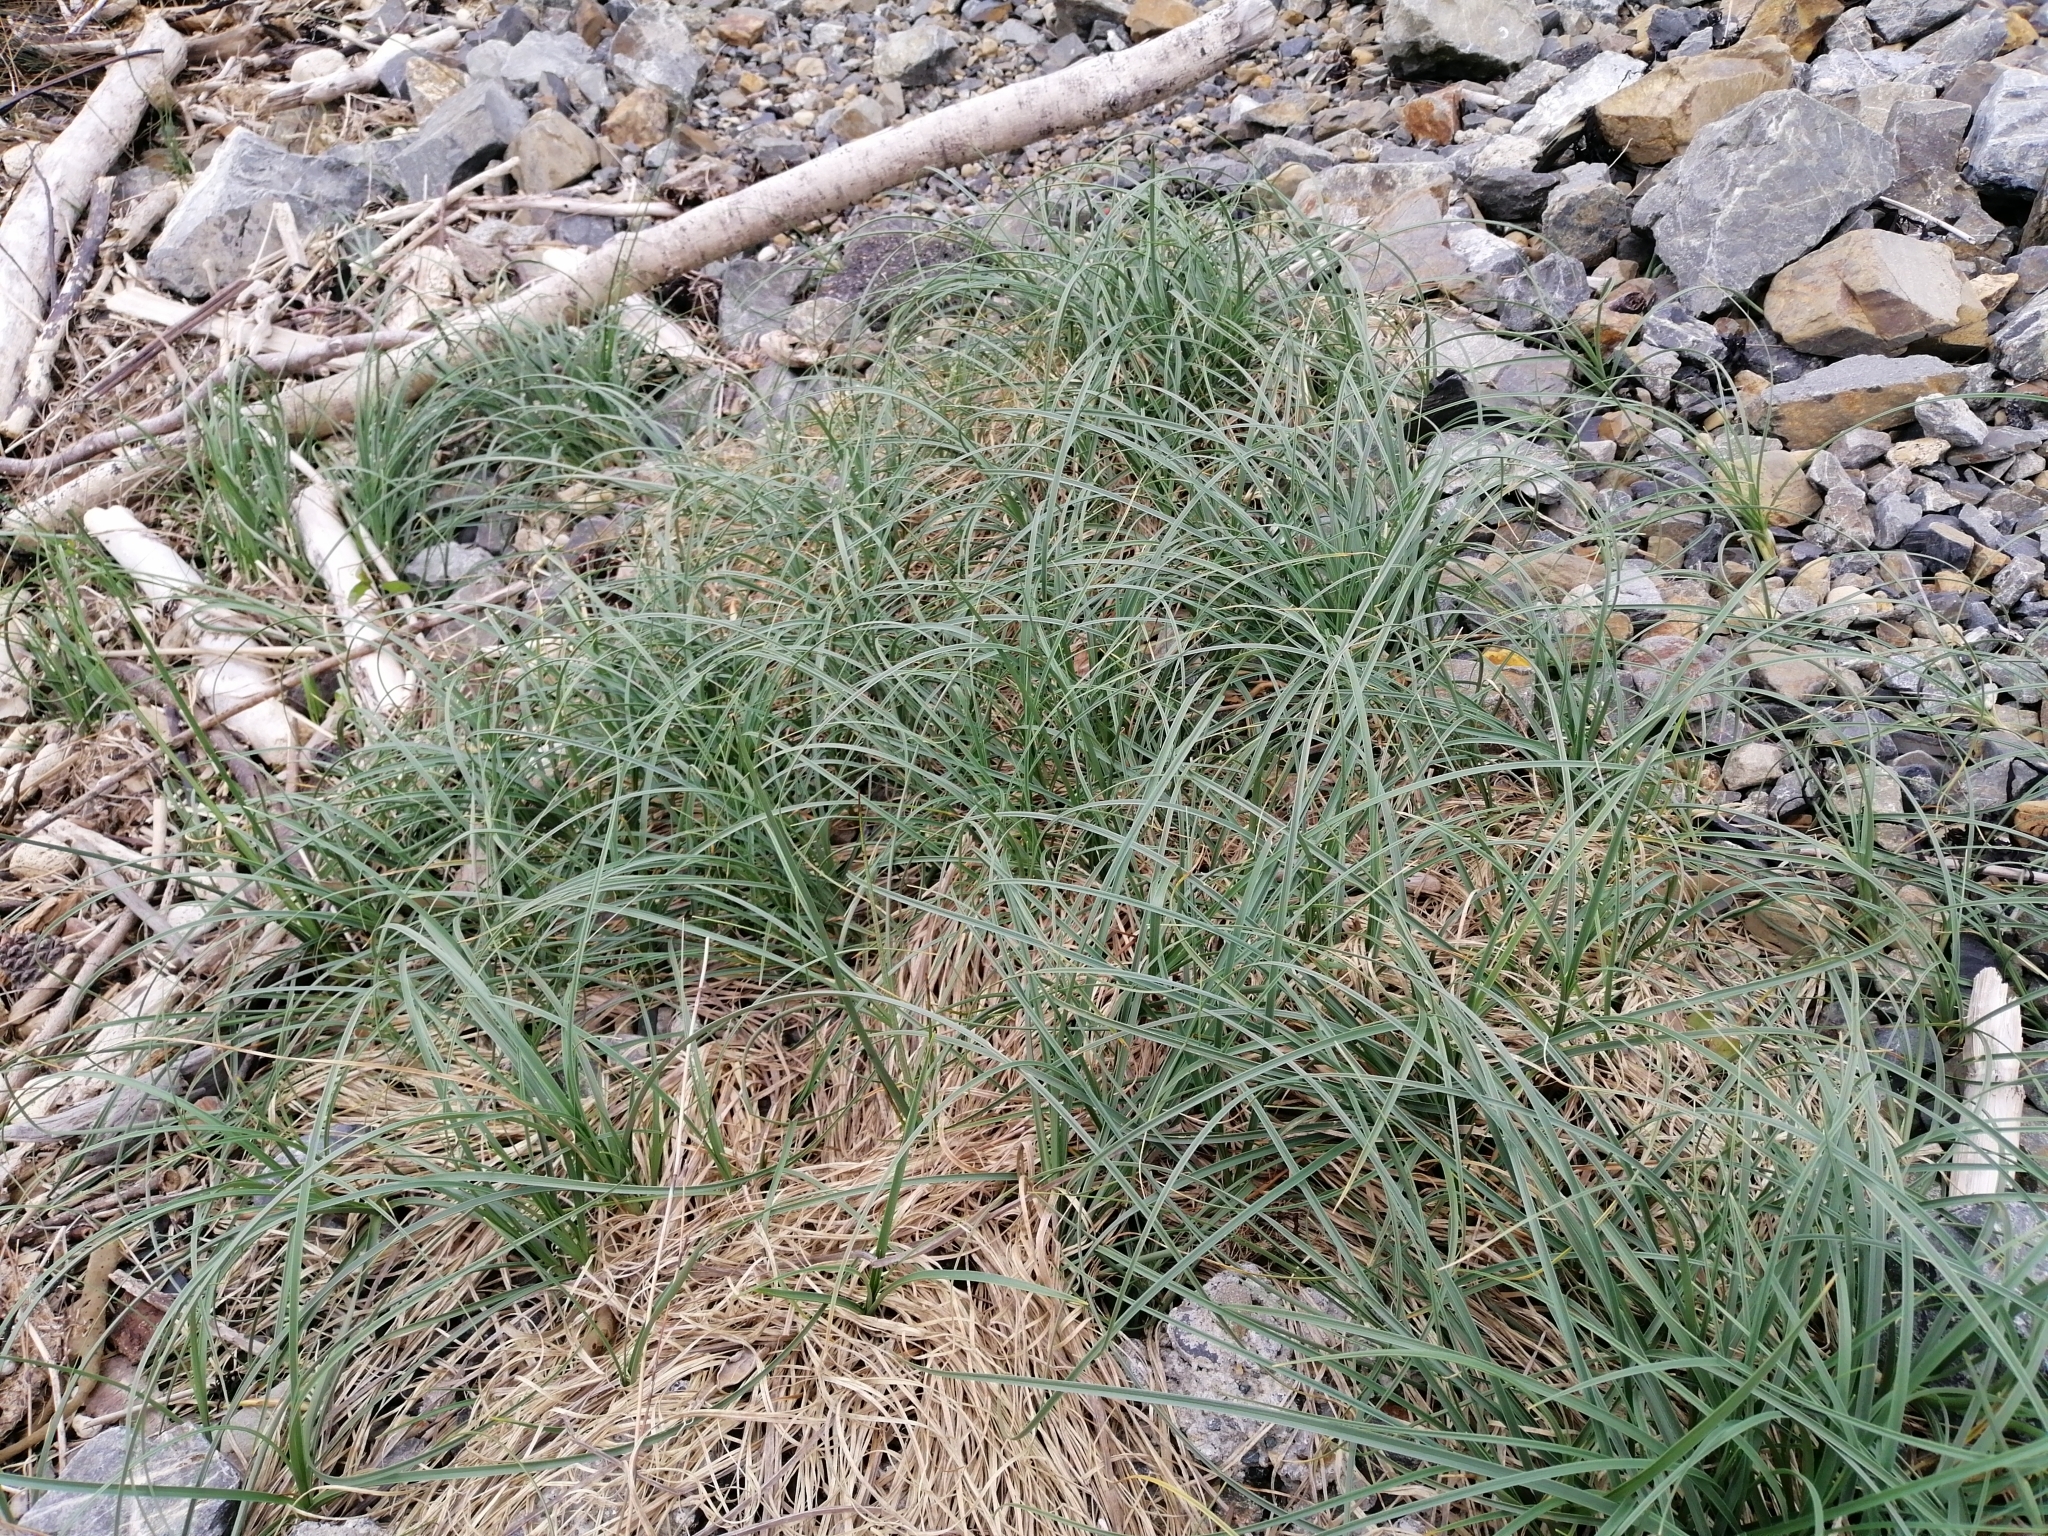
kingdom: Plantae
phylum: Tracheophyta
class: Liliopsida
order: Poales
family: Cyperaceae
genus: Carex
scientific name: Carex pumila
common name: Dwarf sedge
